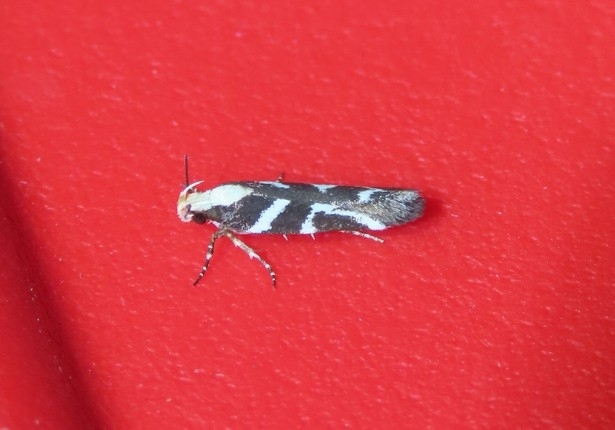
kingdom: Animalia
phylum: Arthropoda
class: Insecta
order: Lepidoptera
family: Gelechiidae
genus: Filatima
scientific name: Filatima albilorella
